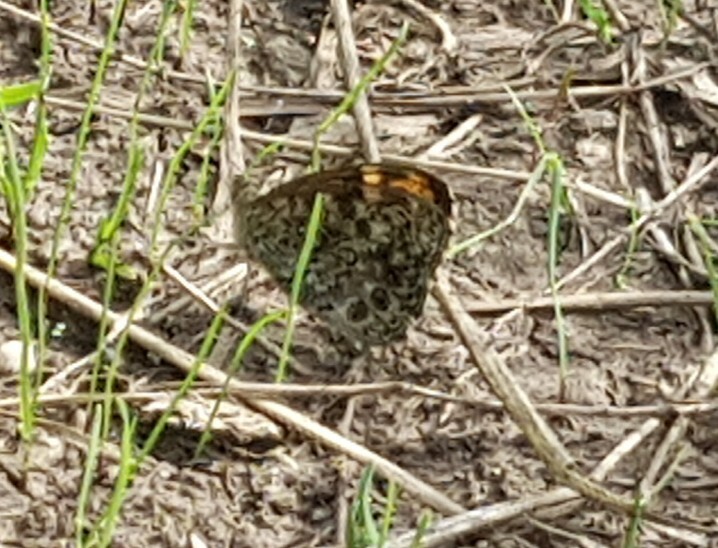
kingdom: Animalia
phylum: Arthropoda
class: Insecta
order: Lepidoptera
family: Nymphalidae
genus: Pararge
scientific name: Pararge Lasiommata megera
